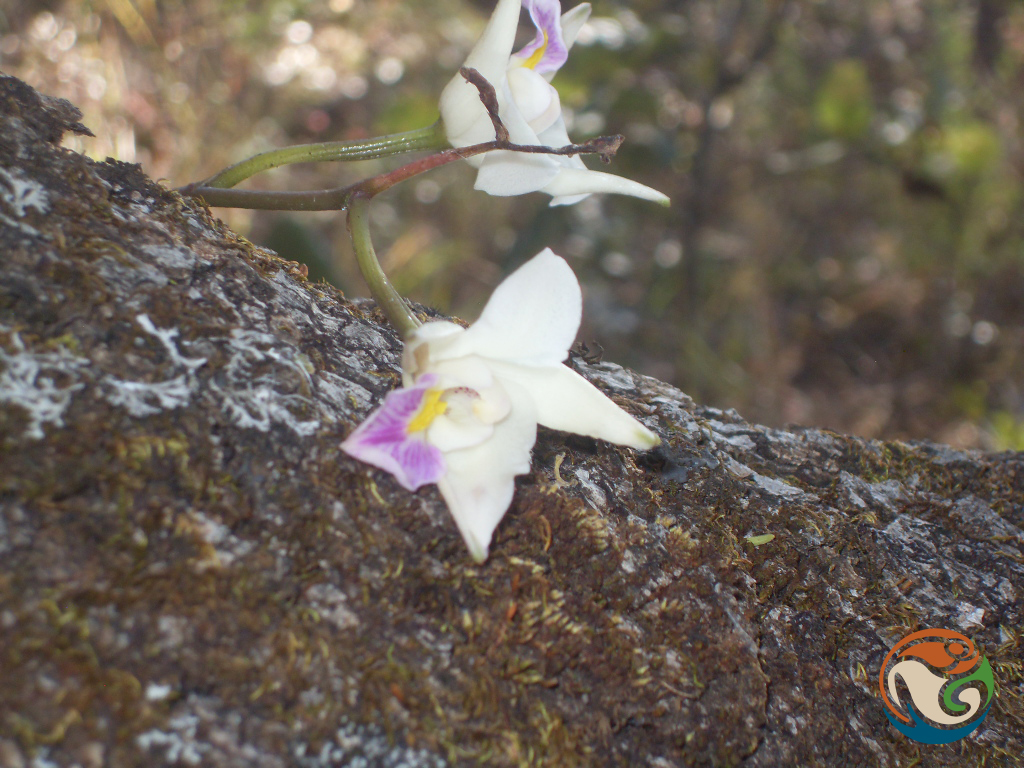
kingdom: Plantae
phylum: Tracheophyta
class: Liliopsida
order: Asparagales
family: Orchidaceae
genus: Laelia
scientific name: Laelia albida
